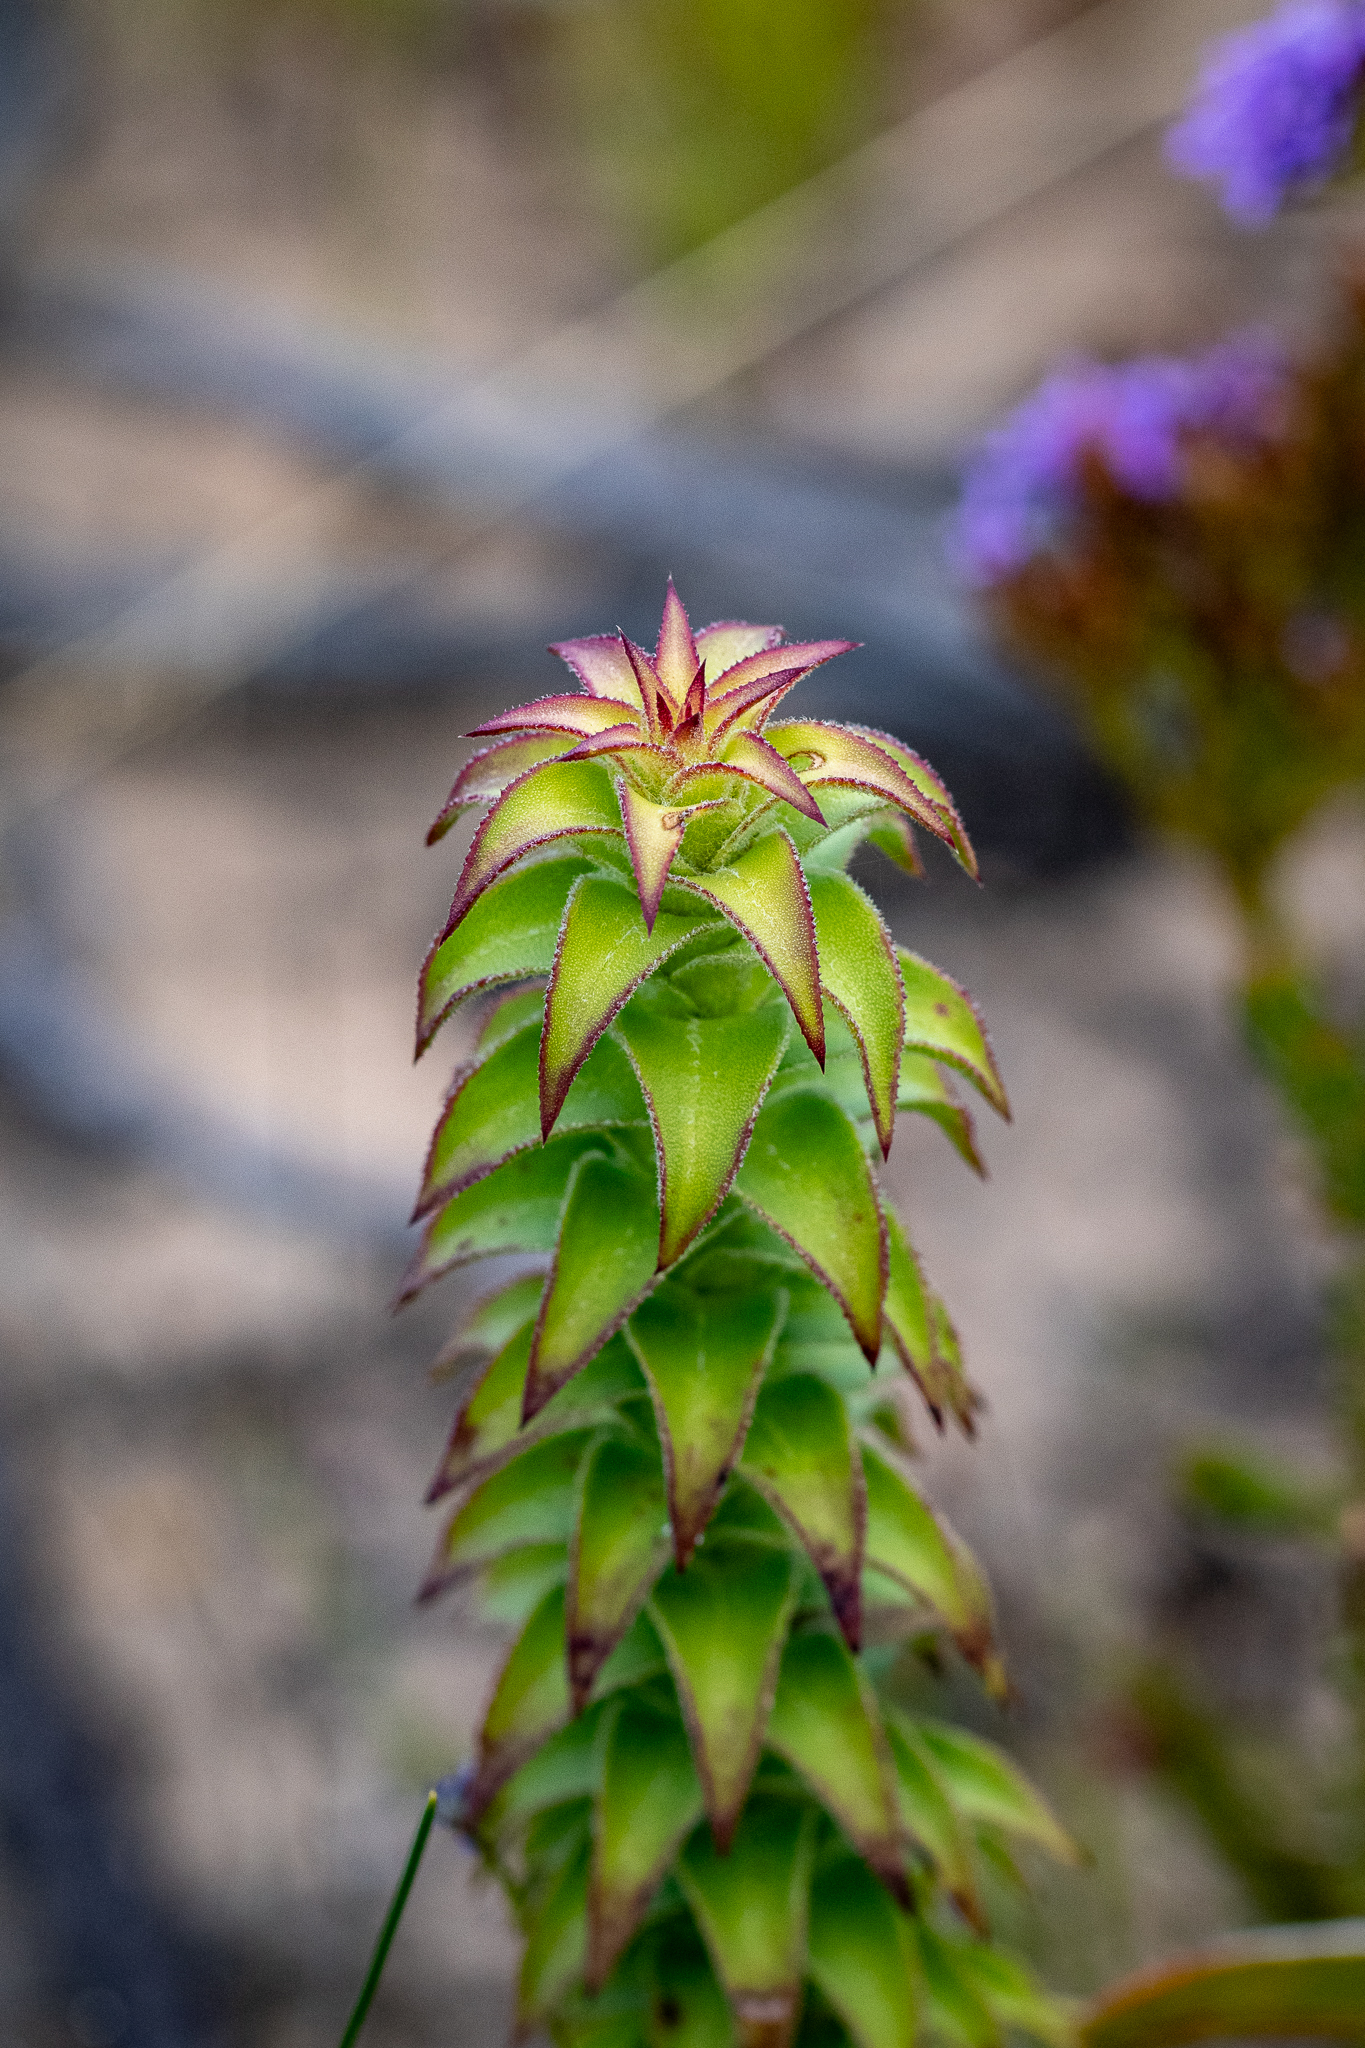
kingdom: Plantae
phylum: Tracheophyta
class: Magnoliopsida
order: Asterales
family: Asteraceae
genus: Oedera
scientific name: Oedera imbricata
